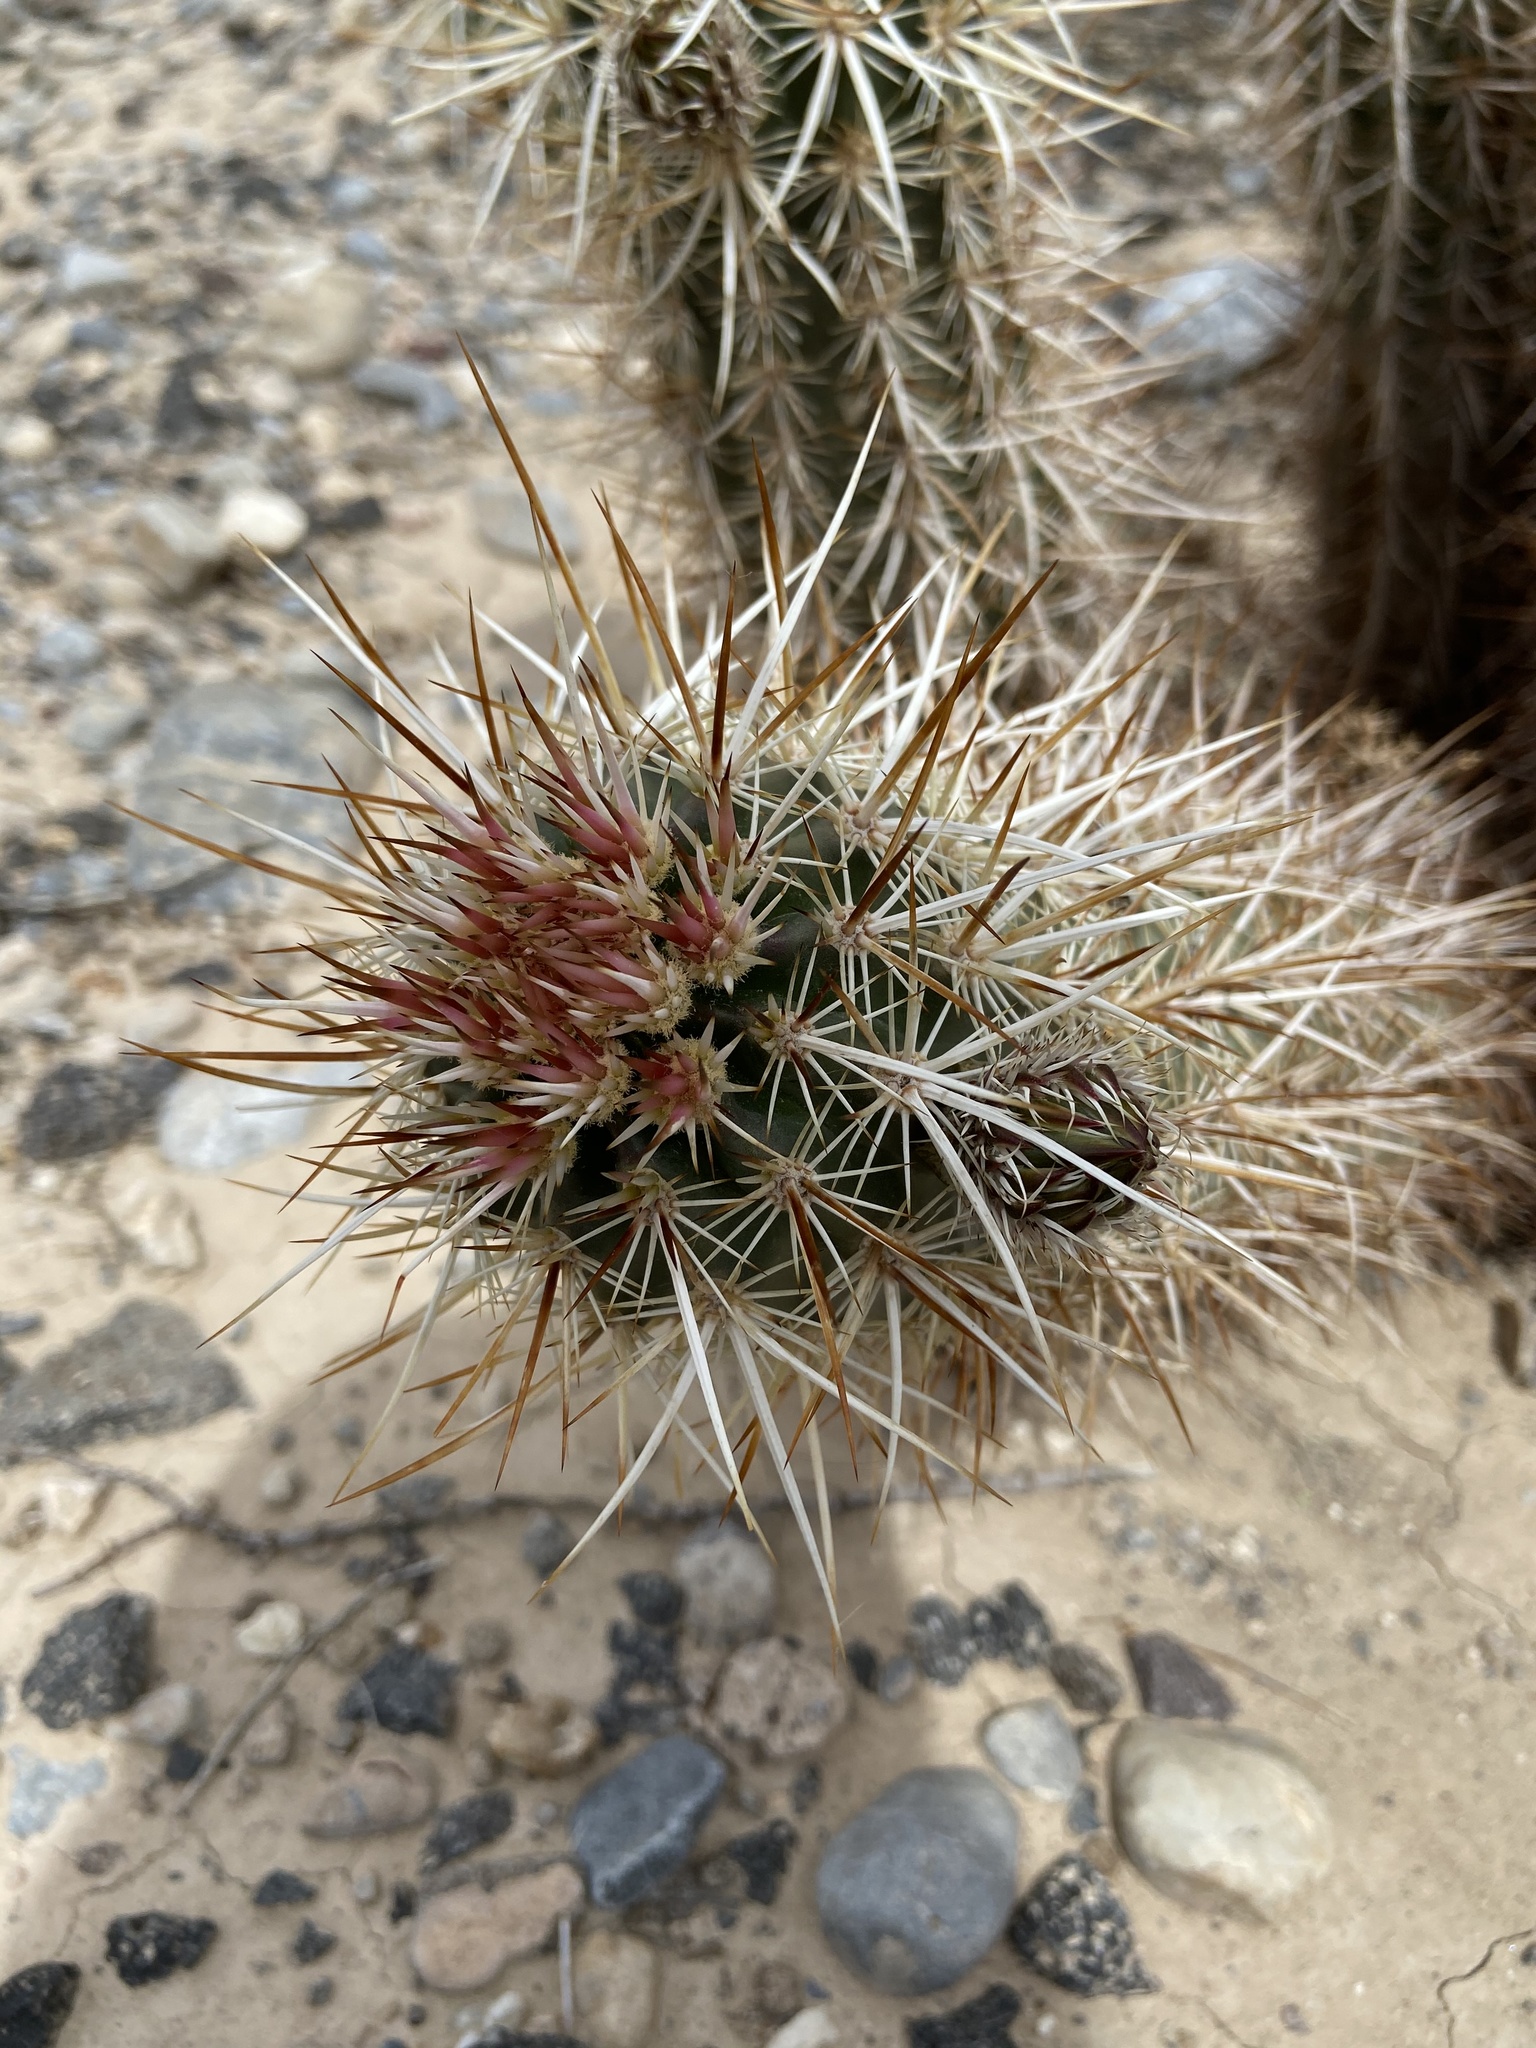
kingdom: Plantae
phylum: Tracheophyta
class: Magnoliopsida
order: Caryophyllales
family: Cactaceae
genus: Echinocereus
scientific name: Echinocereus engelmannii
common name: Engelmann's hedgehog cactus
